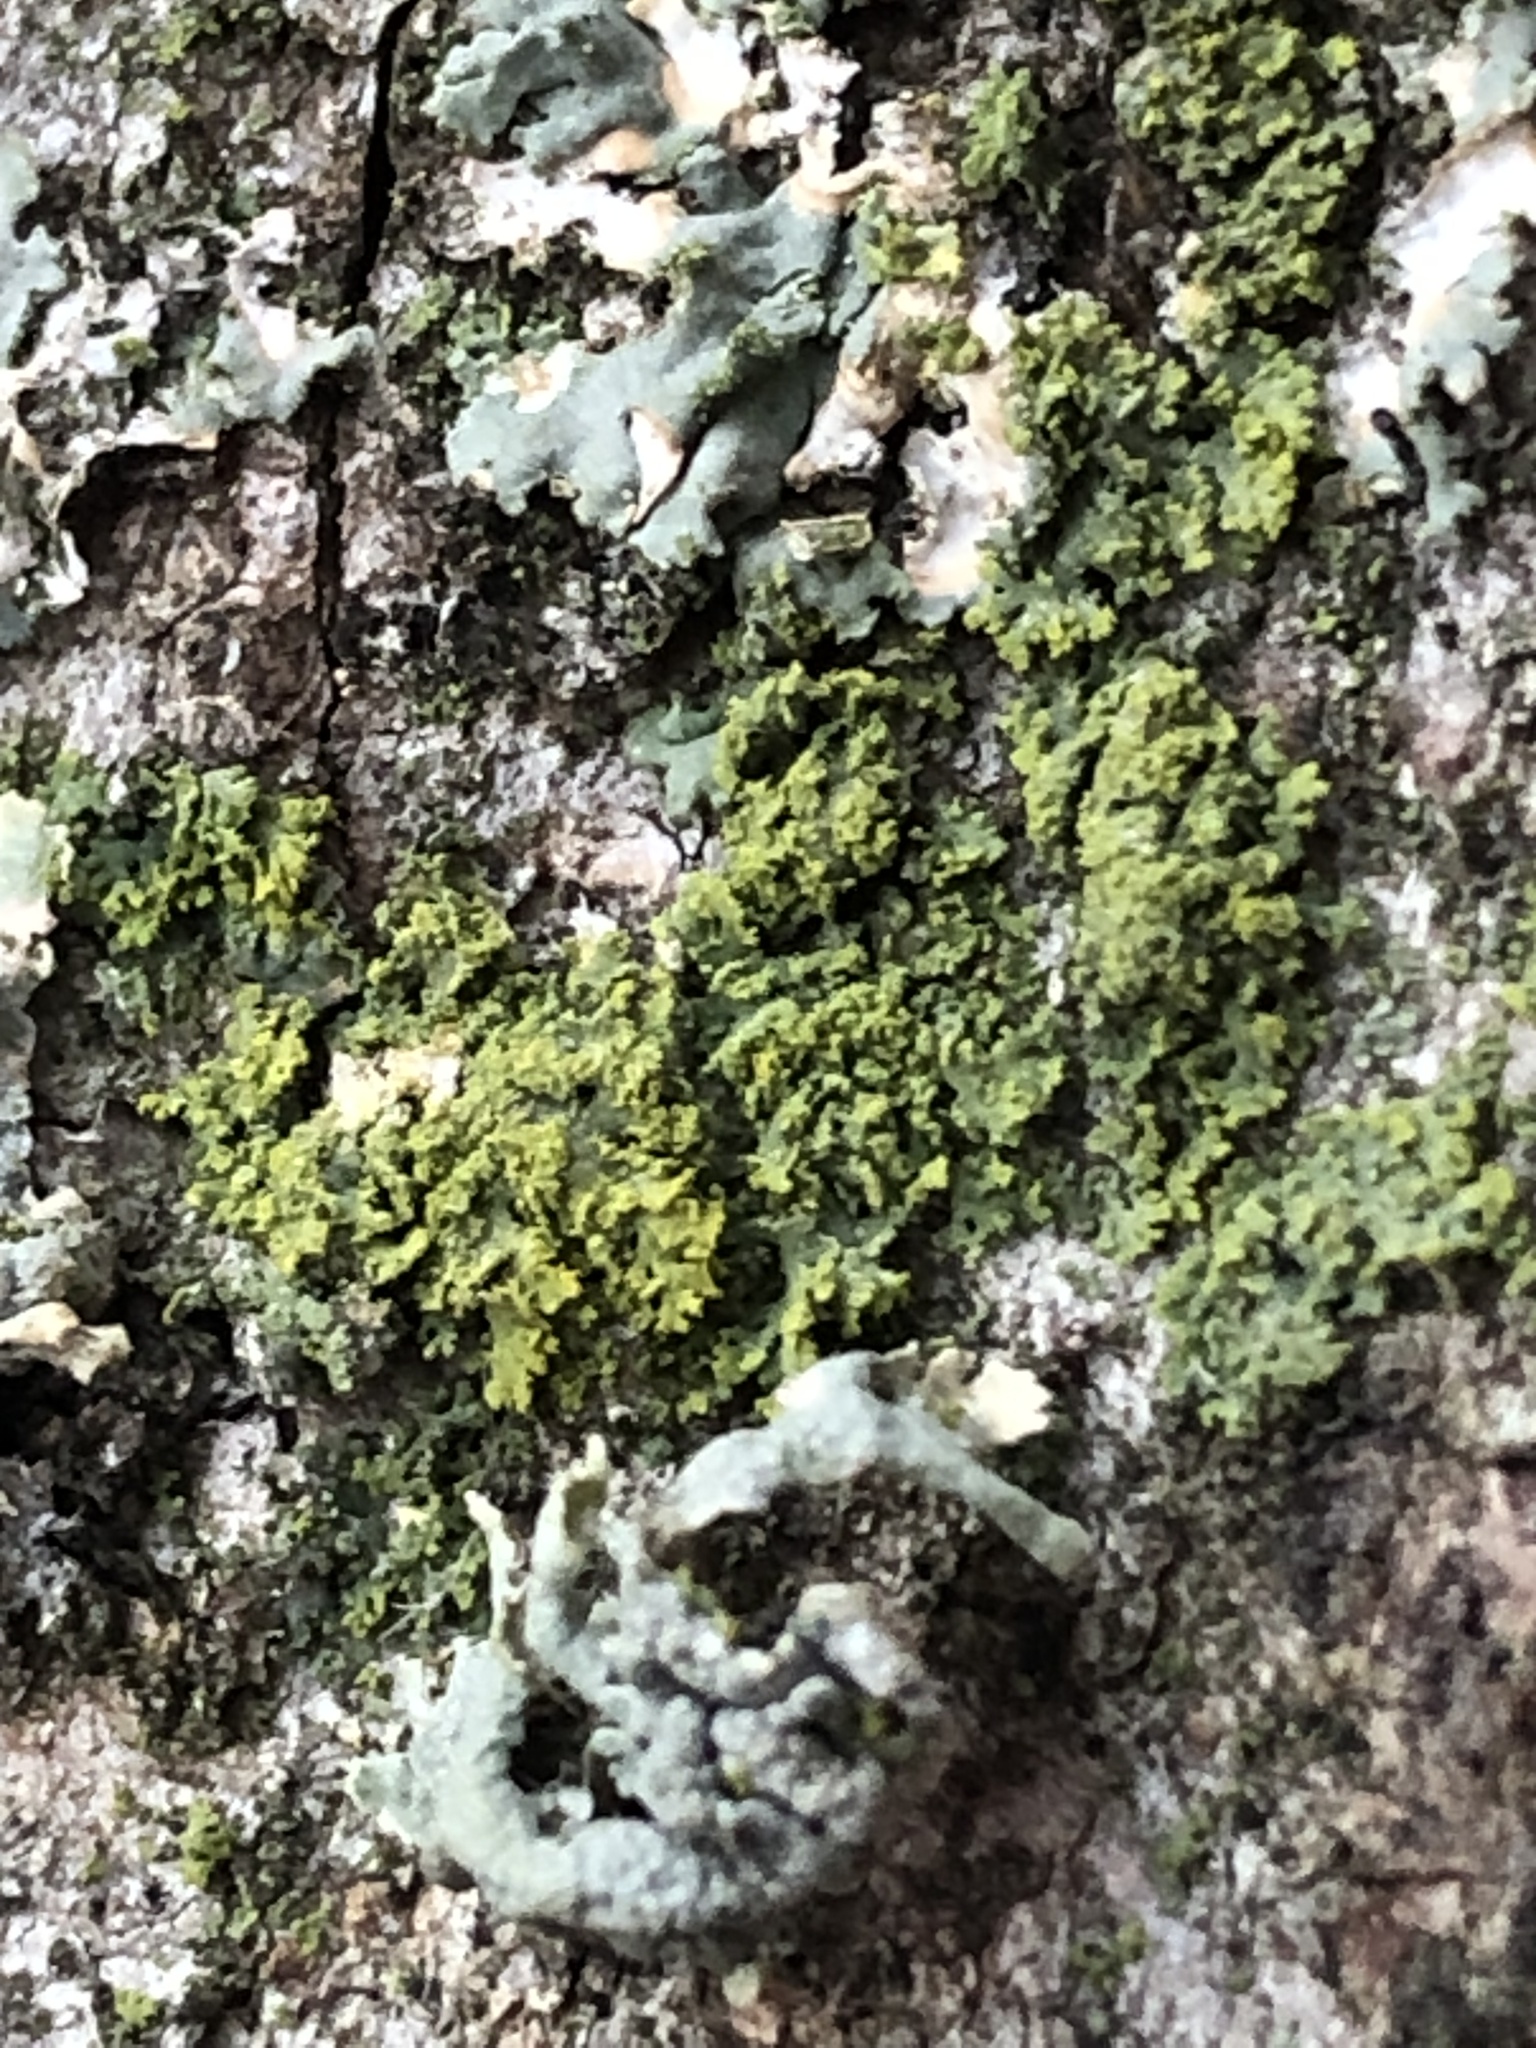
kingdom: Fungi
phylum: Ascomycota
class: Candelariomycetes
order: Candelariales
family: Candelariaceae
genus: Candelaria
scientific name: Candelaria concolor
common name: Candleflame lichen
